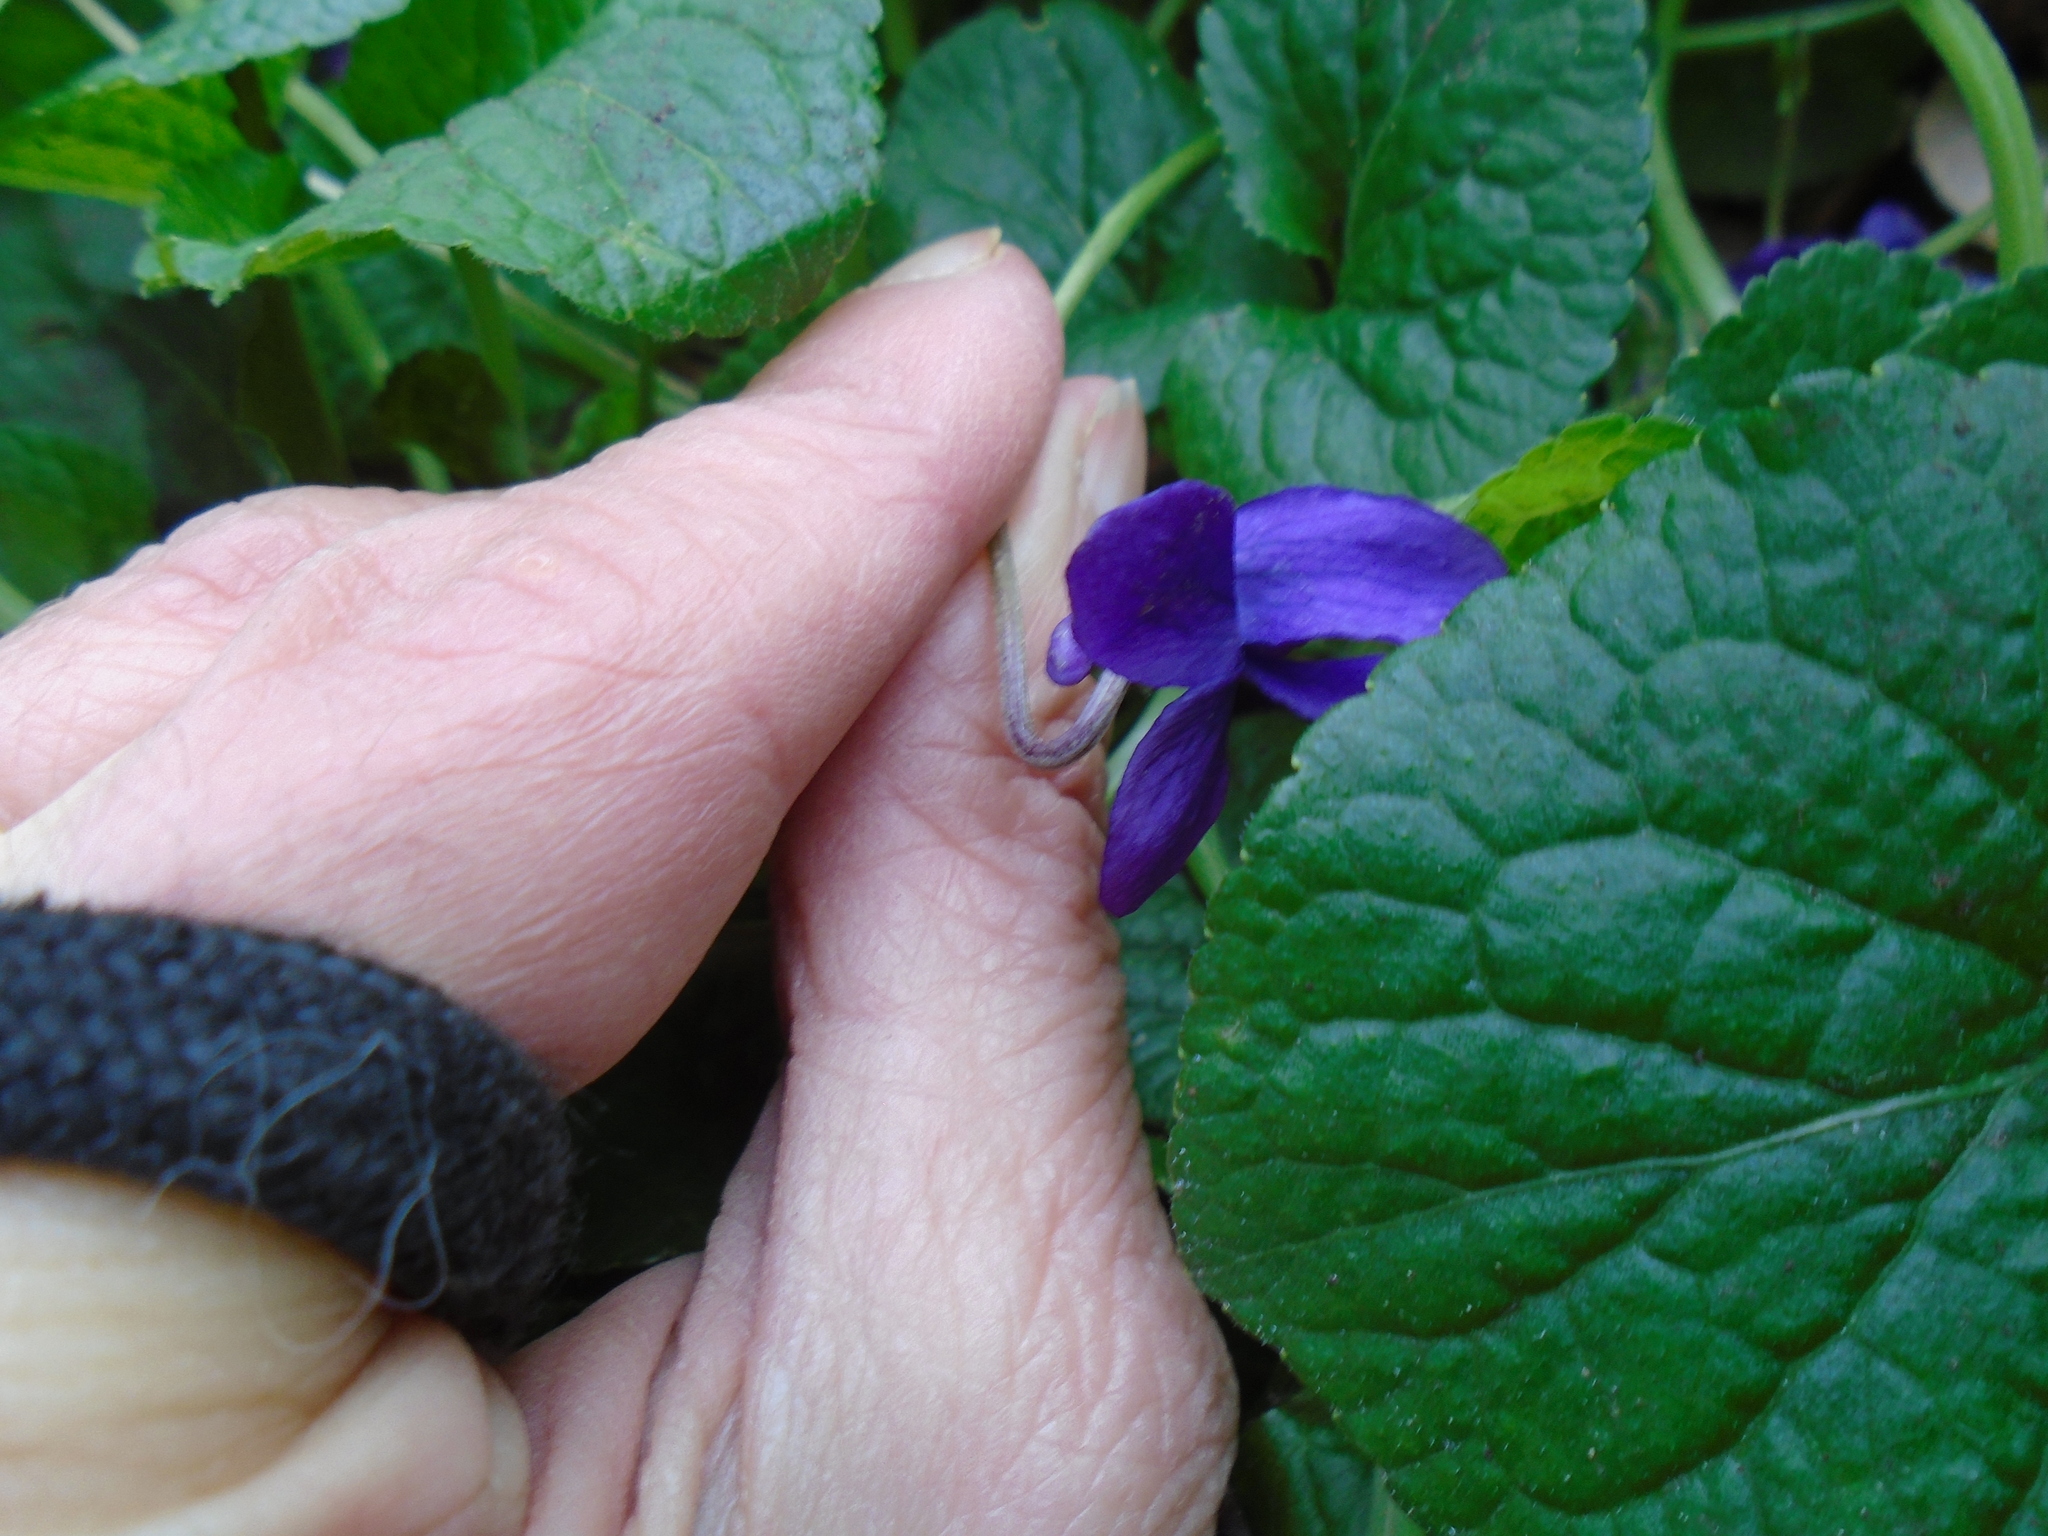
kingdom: Plantae
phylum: Tracheophyta
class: Magnoliopsida
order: Malpighiales
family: Violaceae
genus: Viola
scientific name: Viola odorata
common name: Sweet violet
